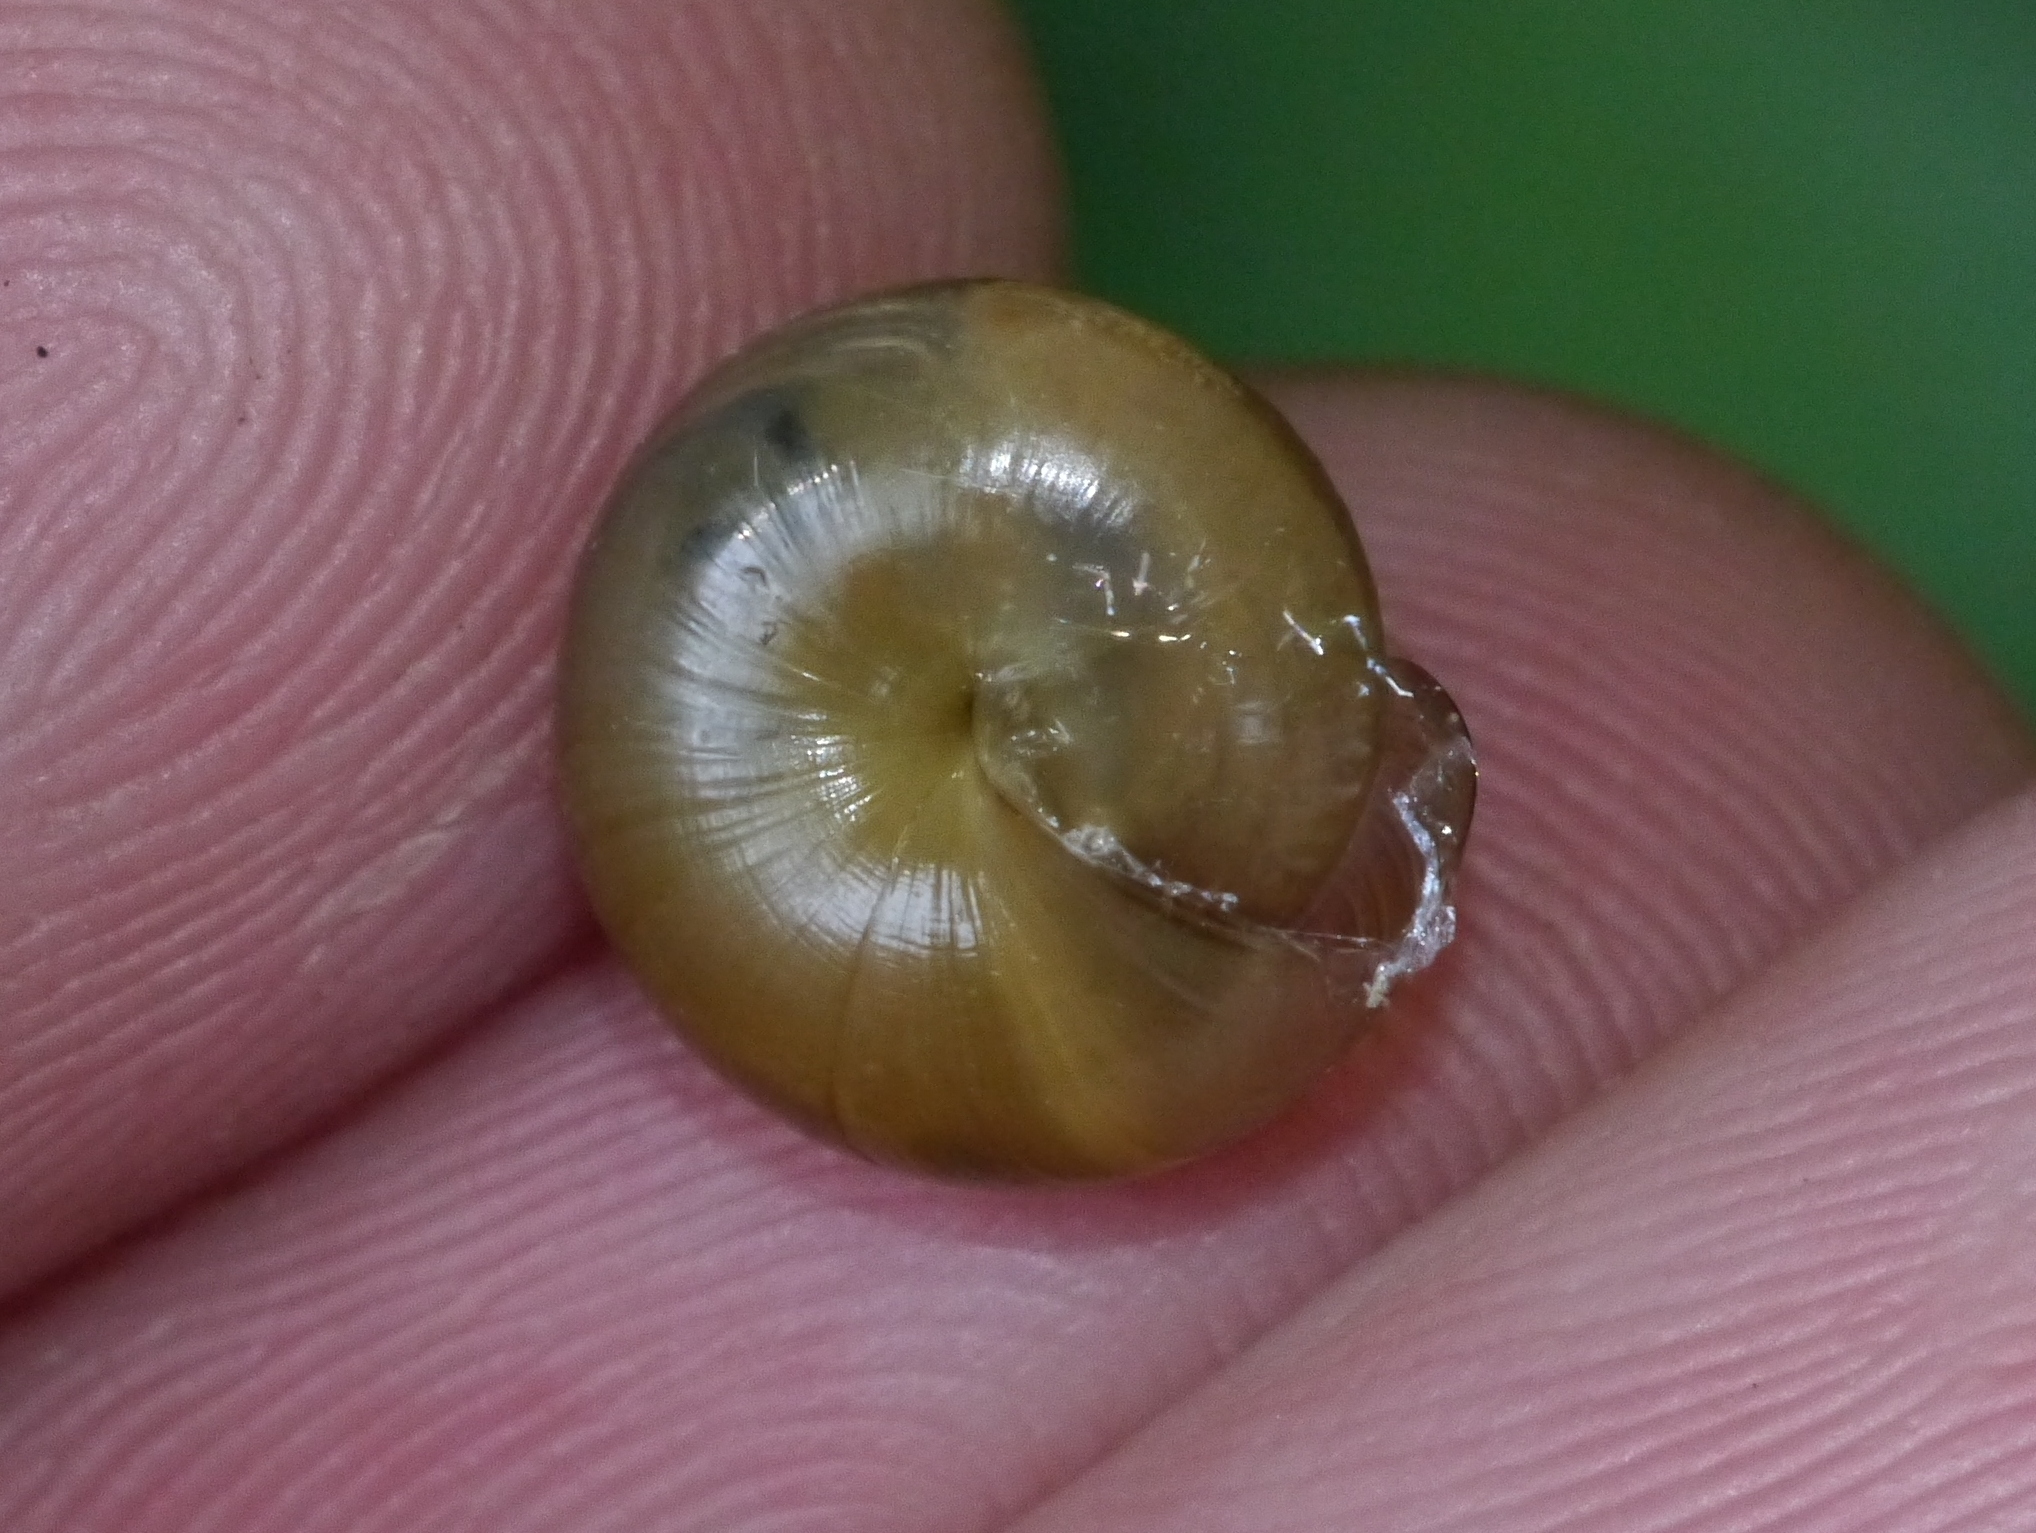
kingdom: Animalia
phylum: Mollusca
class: Gastropoda
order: Stylommatophora
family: Gastrodontidae
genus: Ventridens
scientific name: Ventridens ligera
